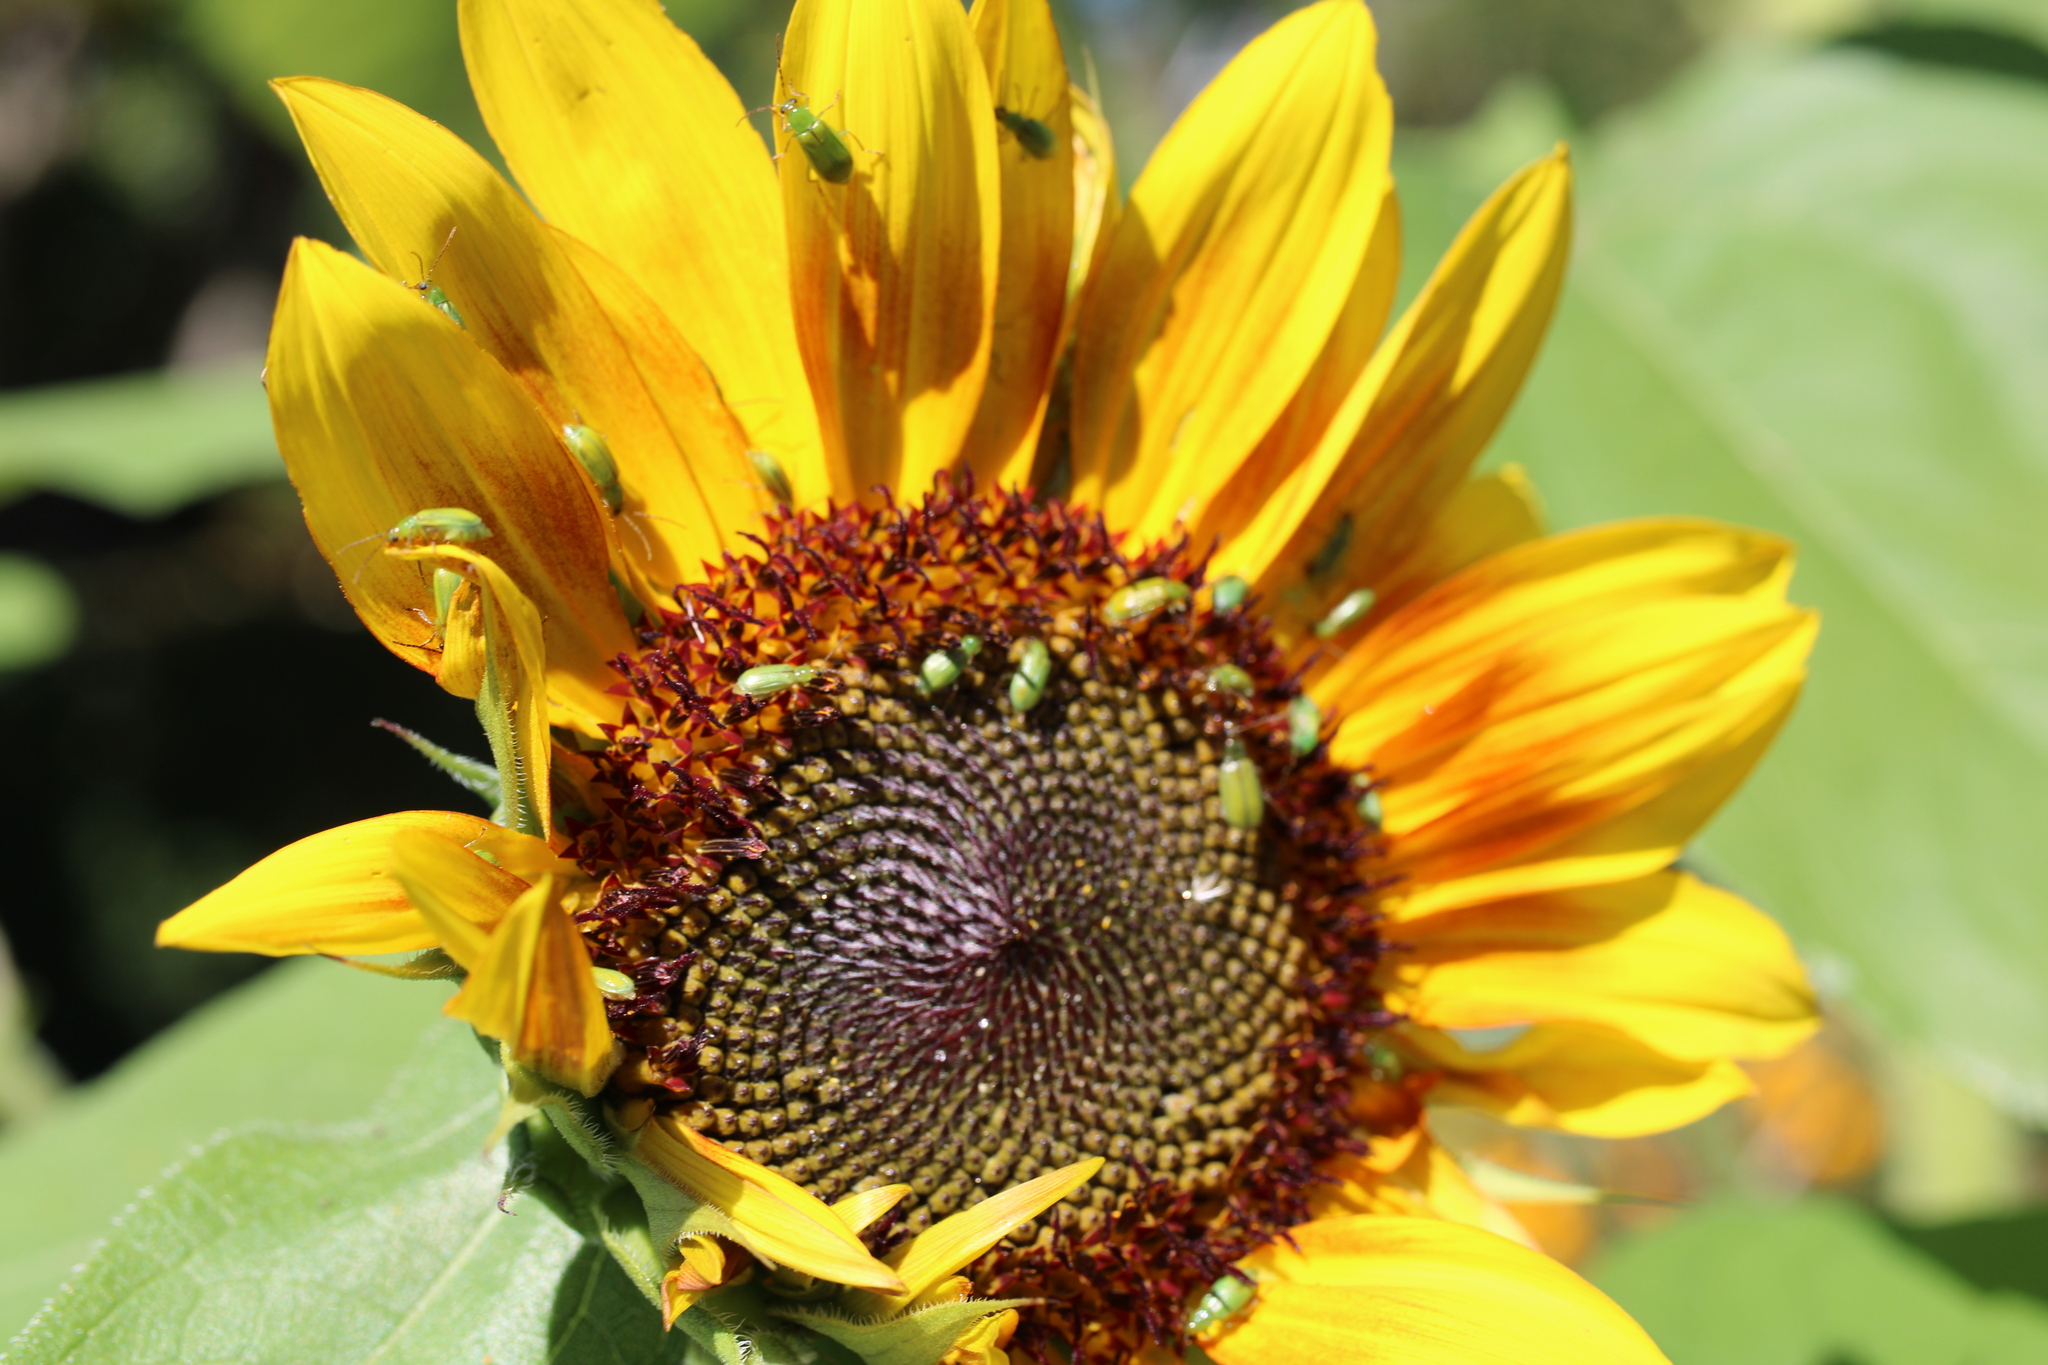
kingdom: Animalia
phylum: Arthropoda
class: Insecta
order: Coleoptera
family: Chrysomelidae
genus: Diabrotica
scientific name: Diabrotica barberi
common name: Northern corn rootworm
